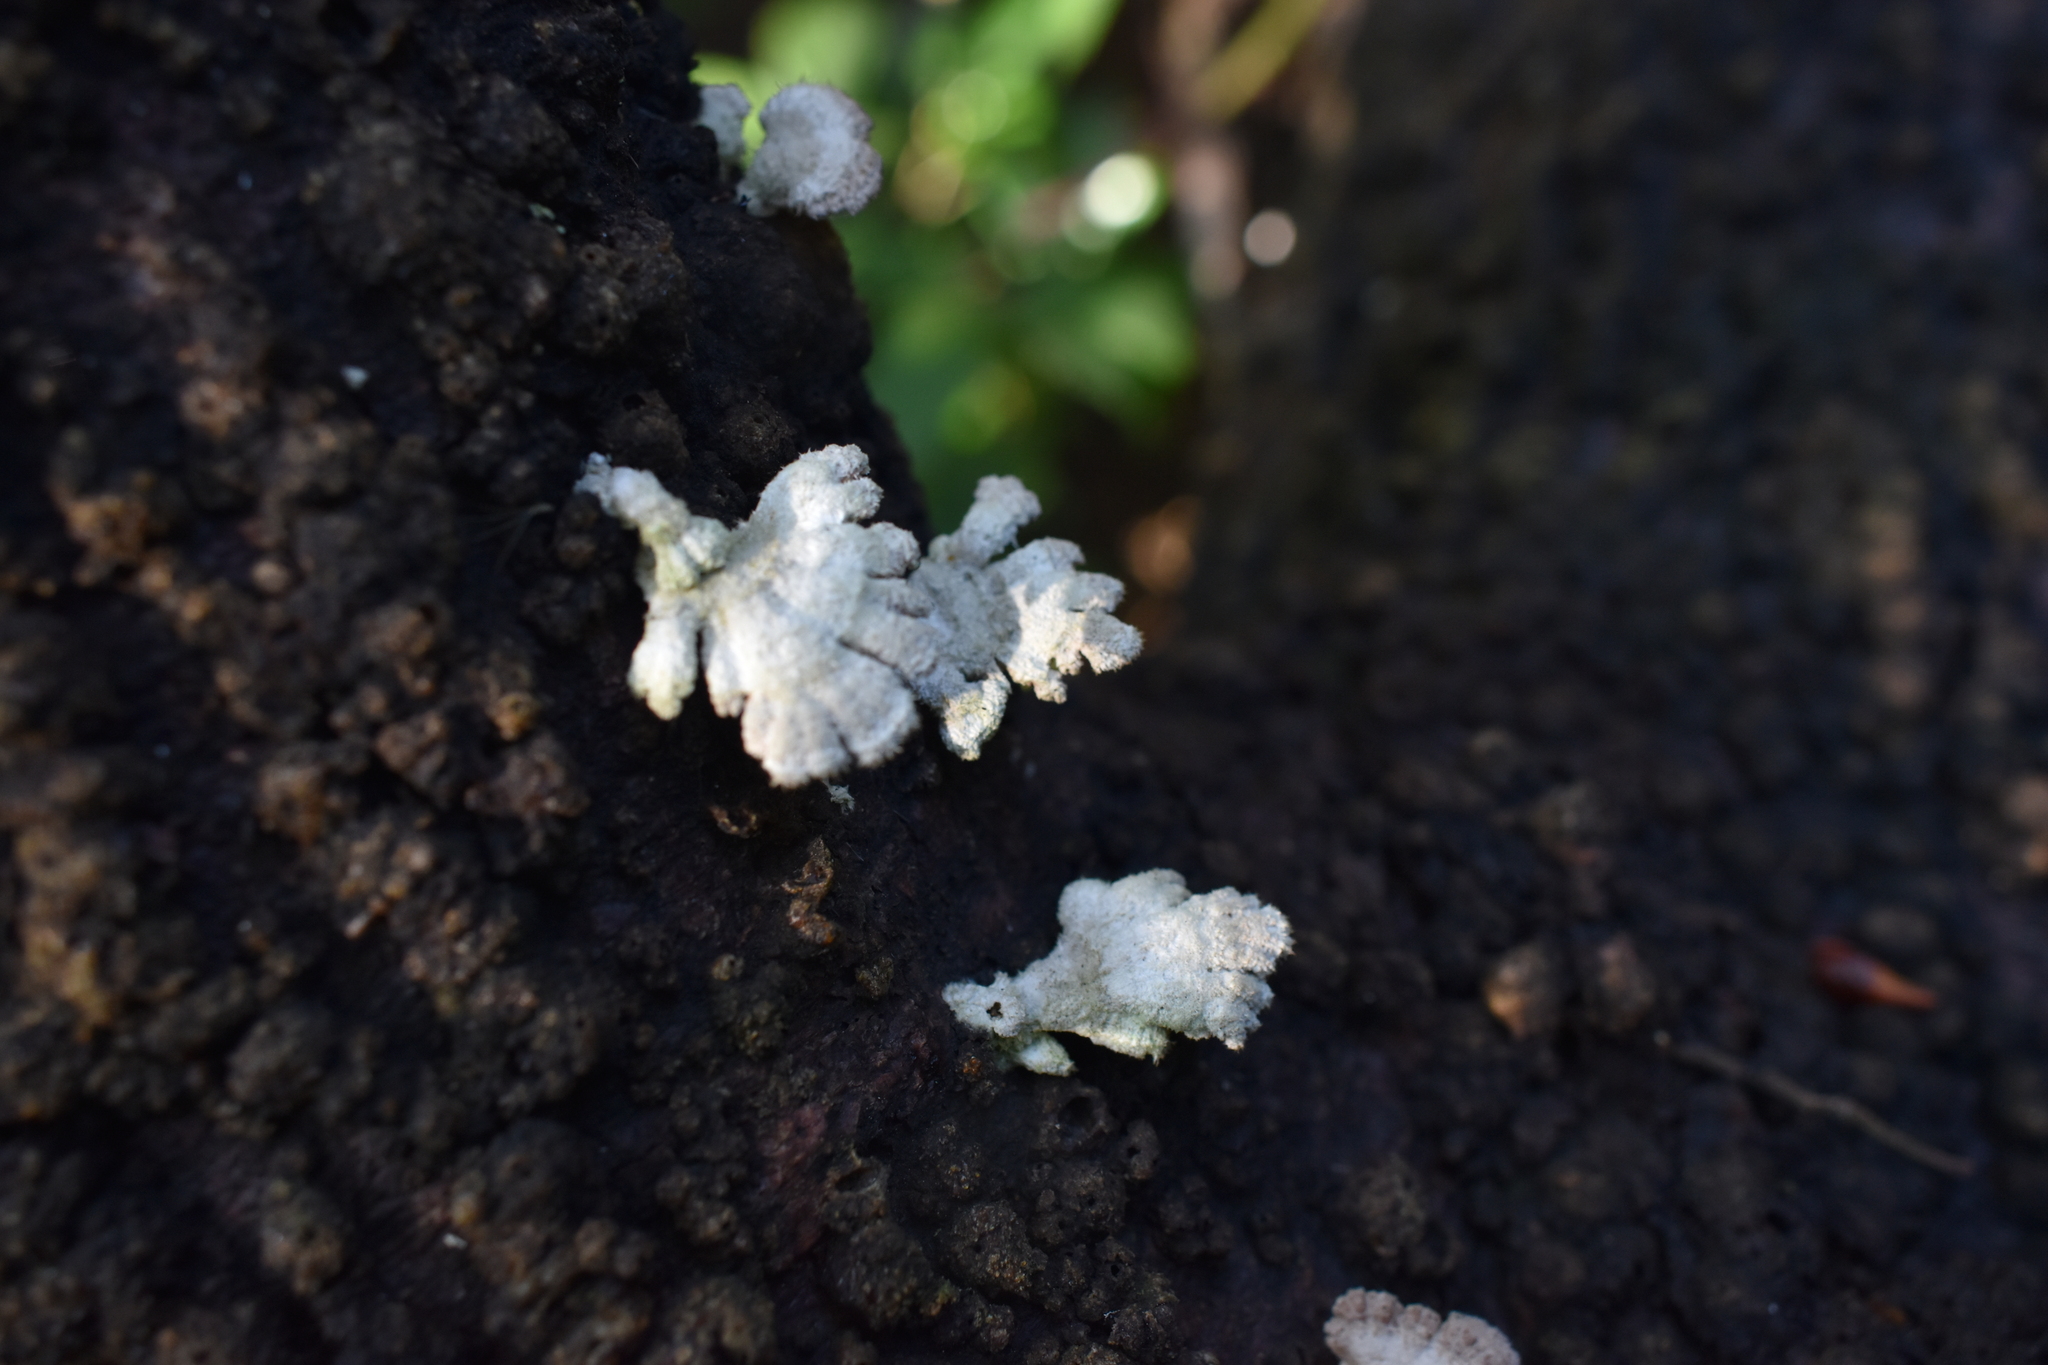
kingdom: Fungi
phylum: Basidiomycota
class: Agaricomycetes
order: Agaricales
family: Schizophyllaceae
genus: Schizophyllum
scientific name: Schizophyllum commune
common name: Common porecrust
